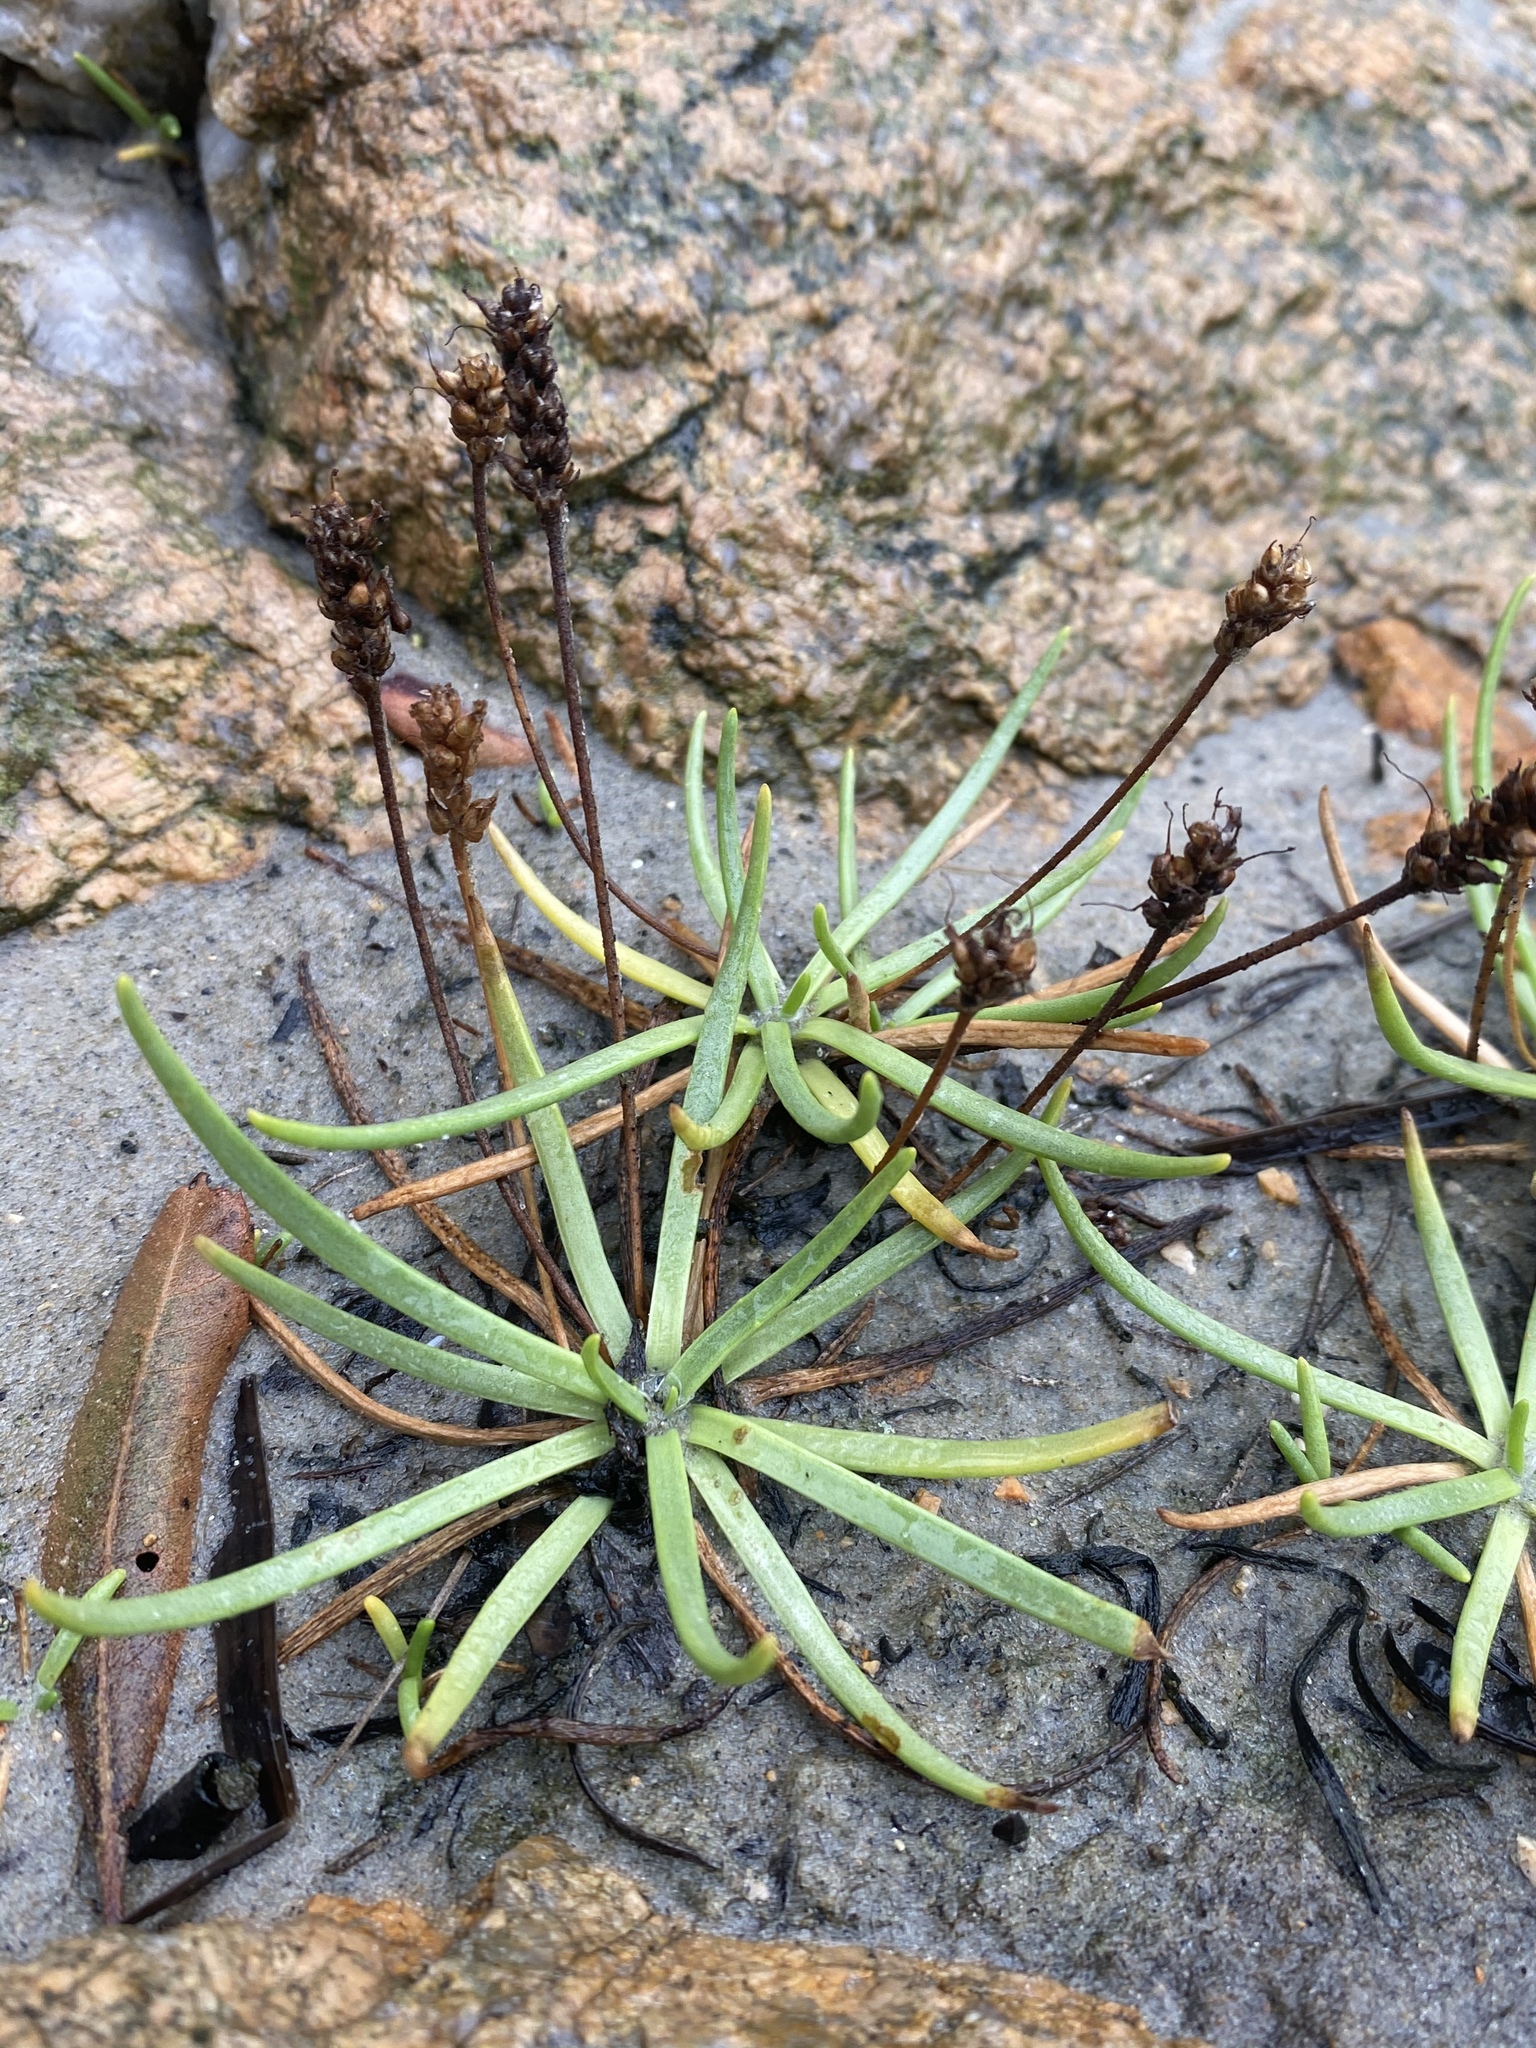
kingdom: Plantae
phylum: Tracheophyta
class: Magnoliopsida
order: Lamiales
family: Plantaginaceae
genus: Plantago
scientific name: Plantago maritima
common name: Sea plantain
